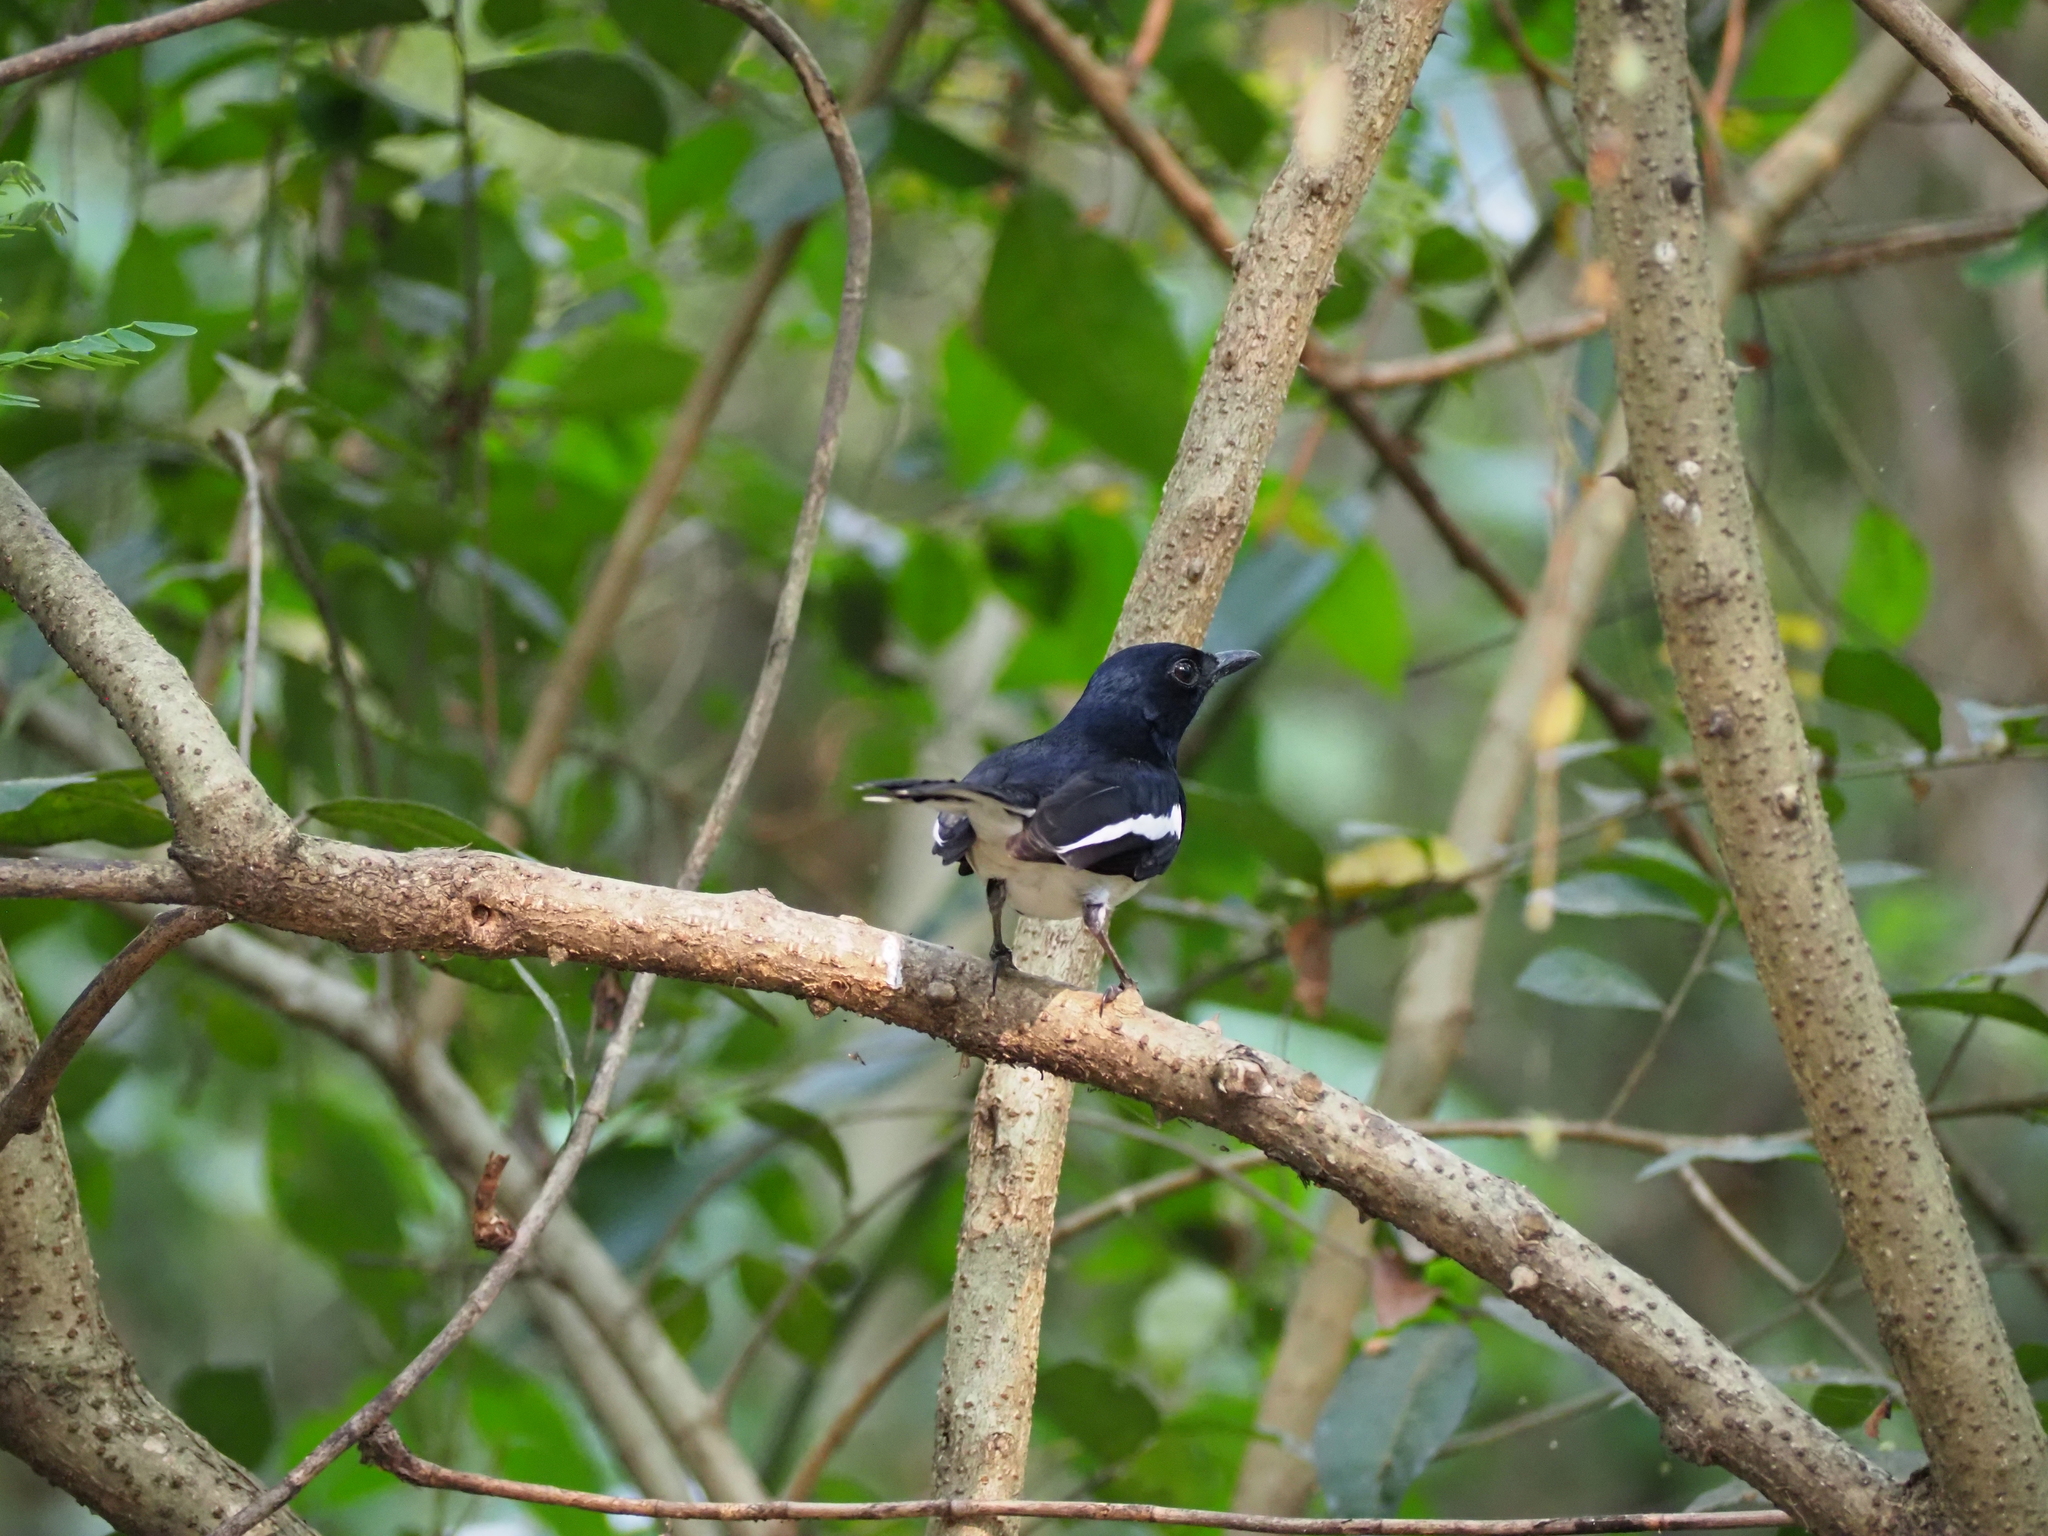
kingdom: Animalia
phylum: Chordata
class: Aves
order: Passeriformes
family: Muscicapidae
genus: Copsychus
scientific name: Copsychus saularis
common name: Oriental magpie-robin
